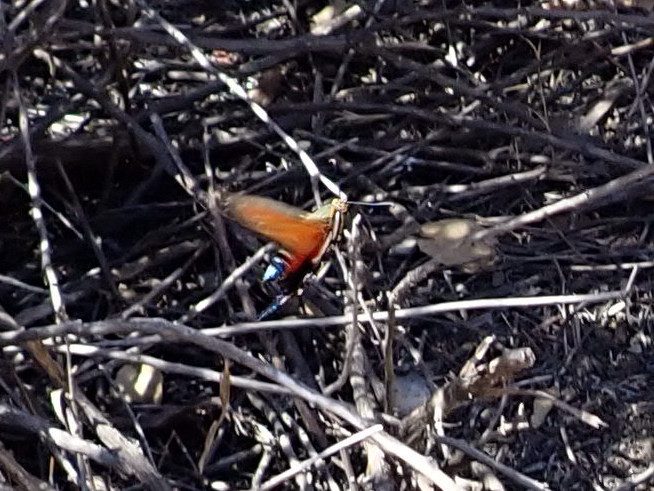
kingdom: Animalia
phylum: Arthropoda
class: Insecta
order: Lepidoptera
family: Sesiidae
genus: Eichlinia
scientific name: Eichlinia gloriosa
